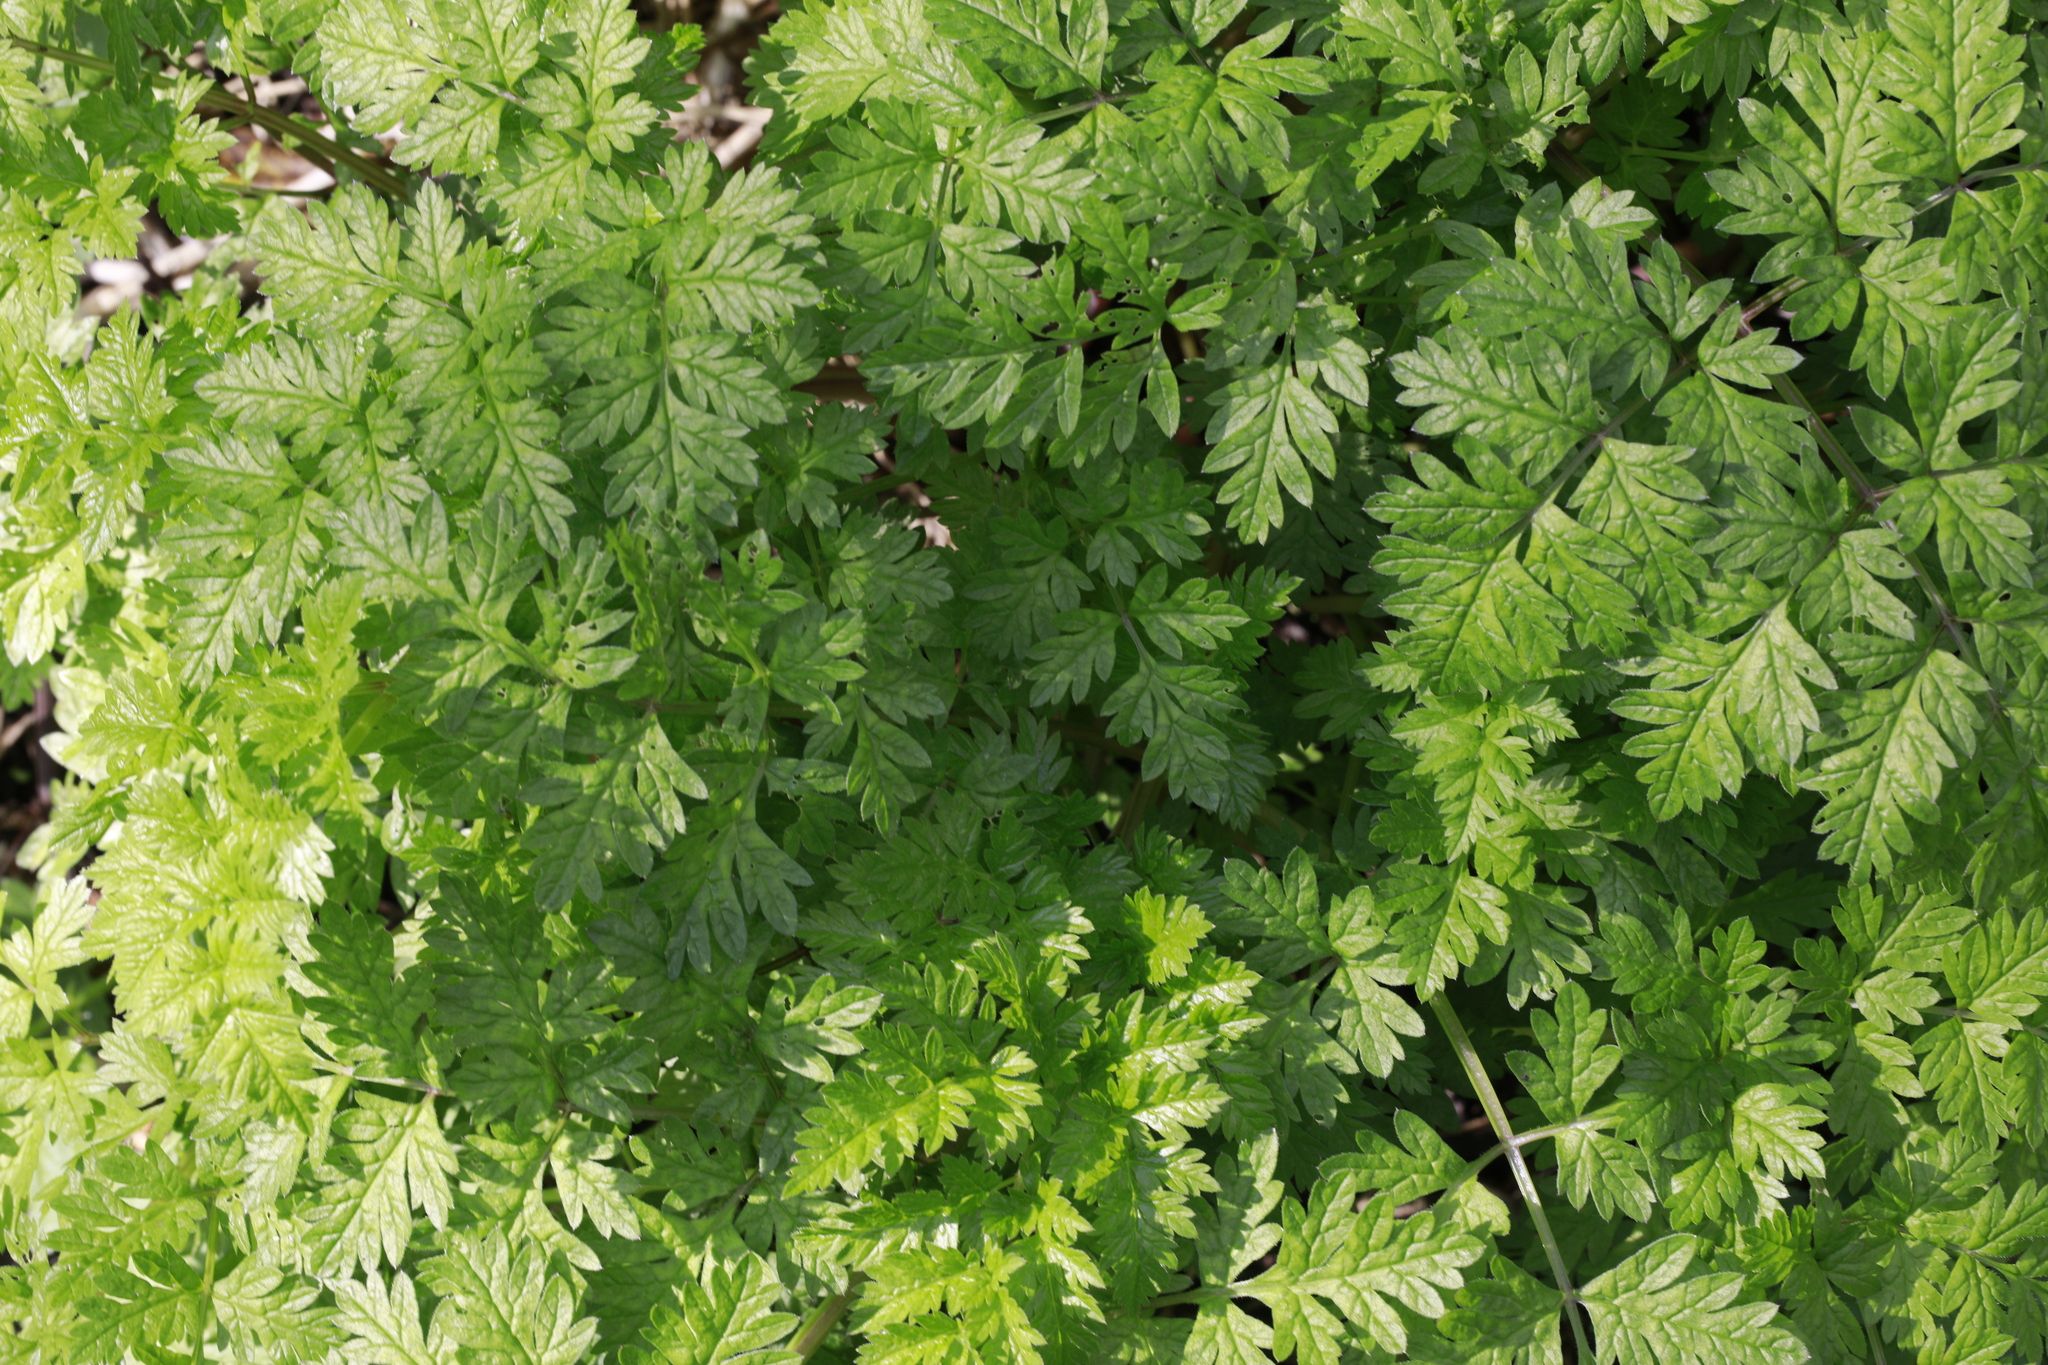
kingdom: Plantae
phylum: Tracheophyta
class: Magnoliopsida
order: Apiales
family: Apiaceae
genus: Anthriscus
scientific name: Anthriscus sylvestris
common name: Cow parsley
